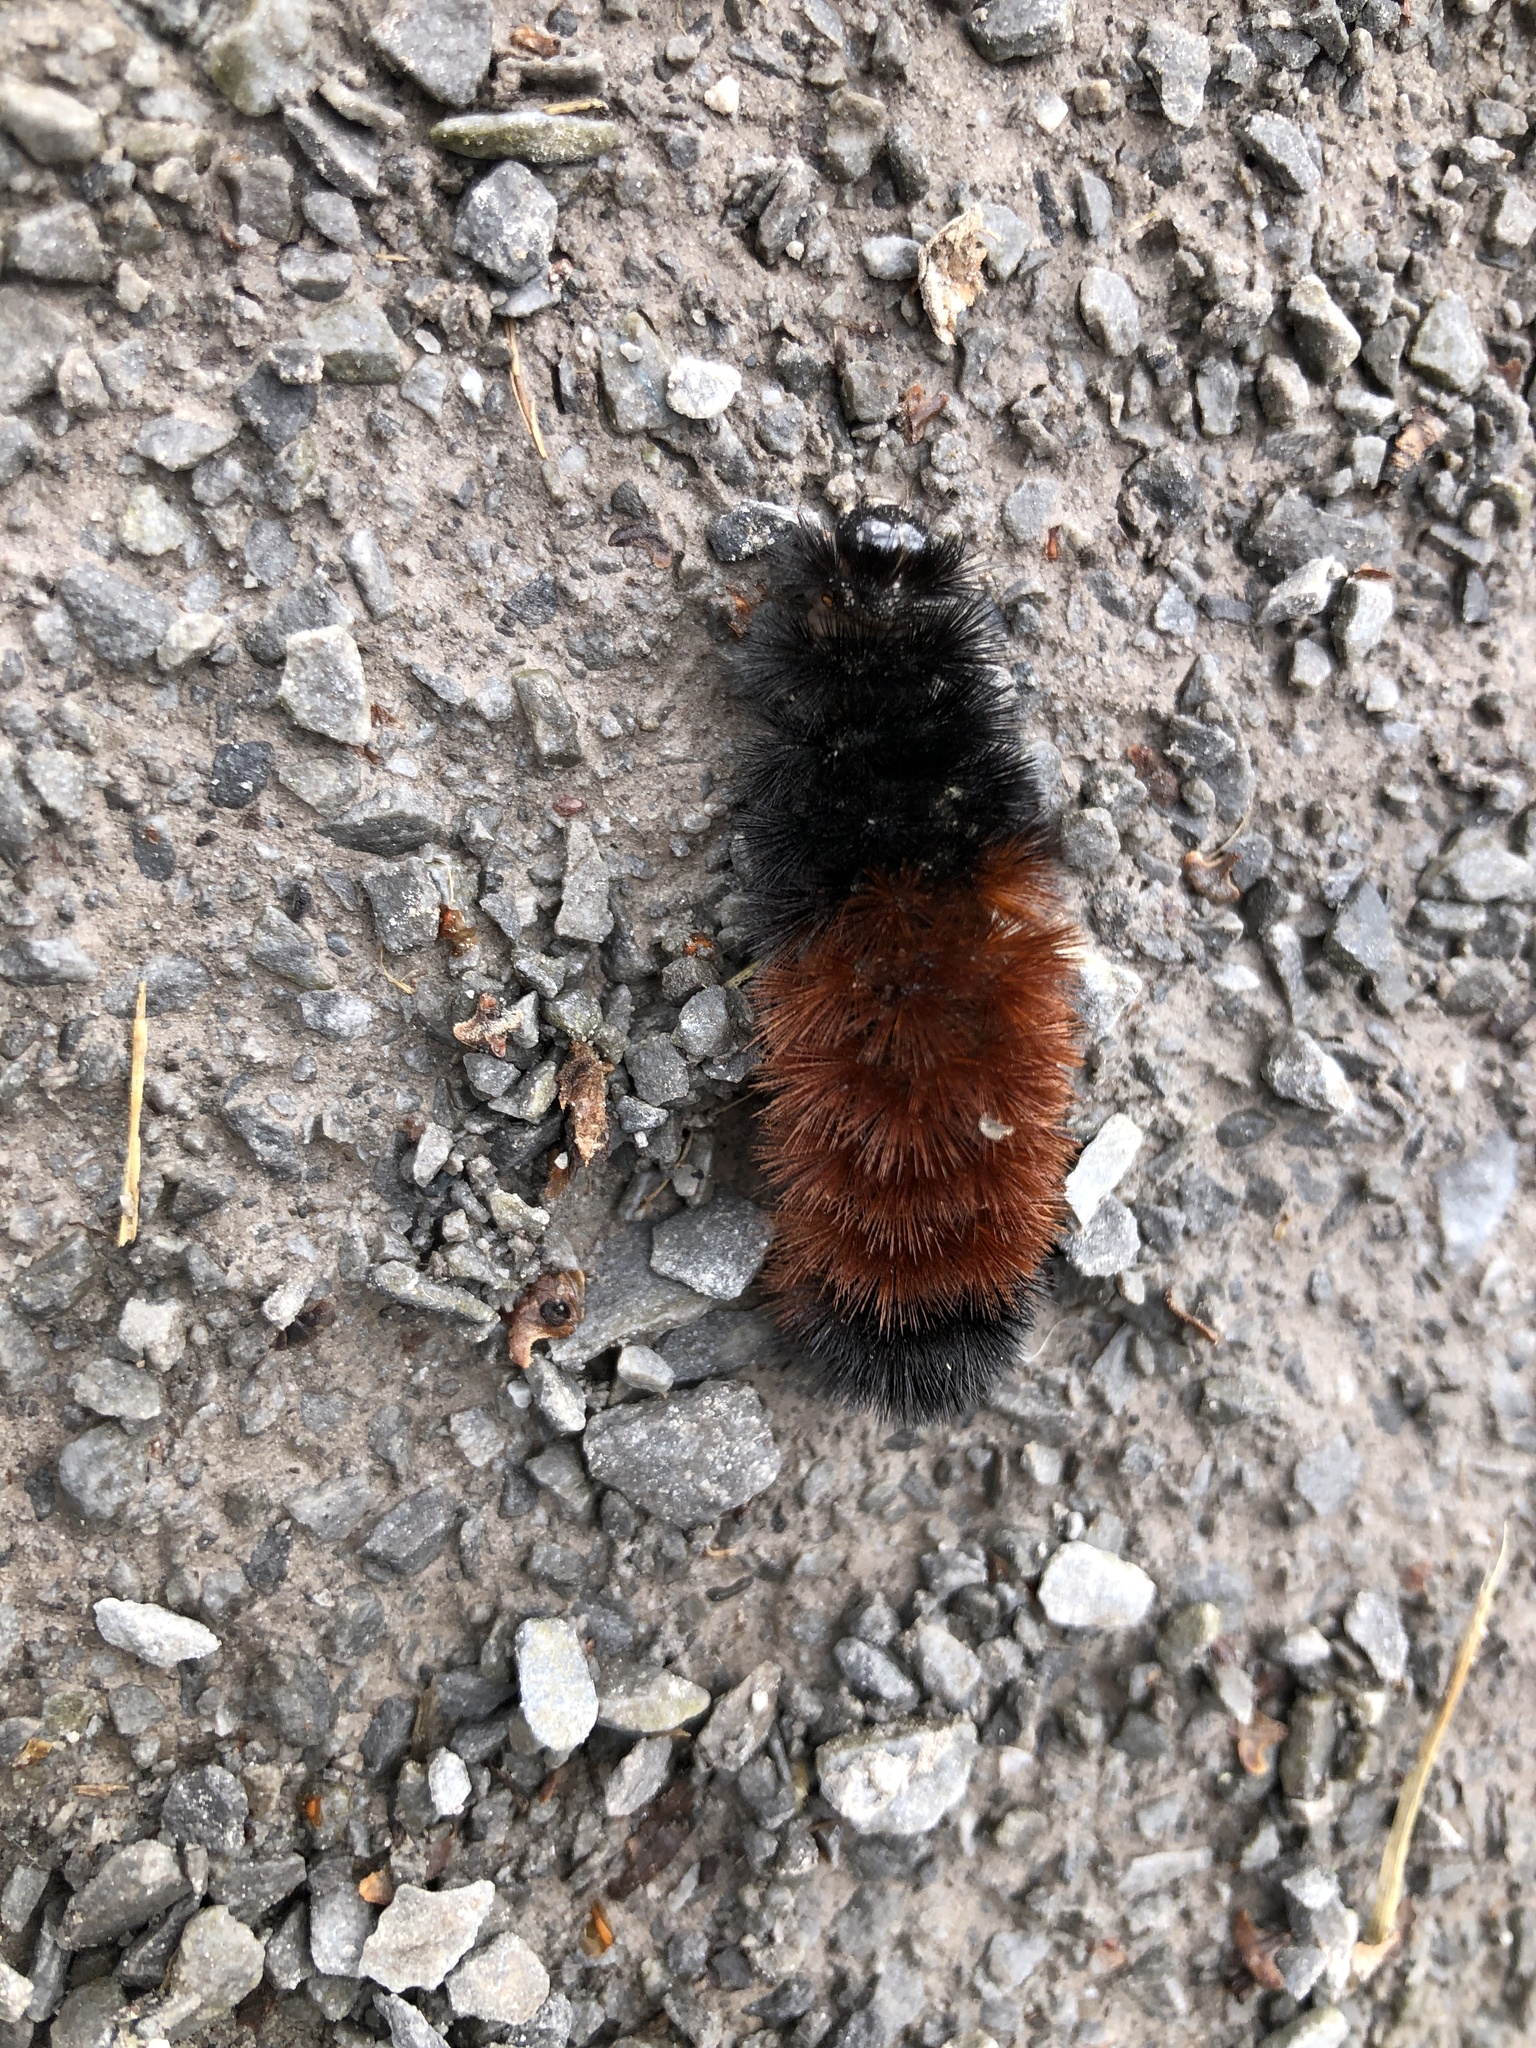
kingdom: Animalia
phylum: Arthropoda
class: Insecta
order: Lepidoptera
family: Erebidae
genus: Pyrrharctia
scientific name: Pyrrharctia isabella
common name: Isabella tiger moth
